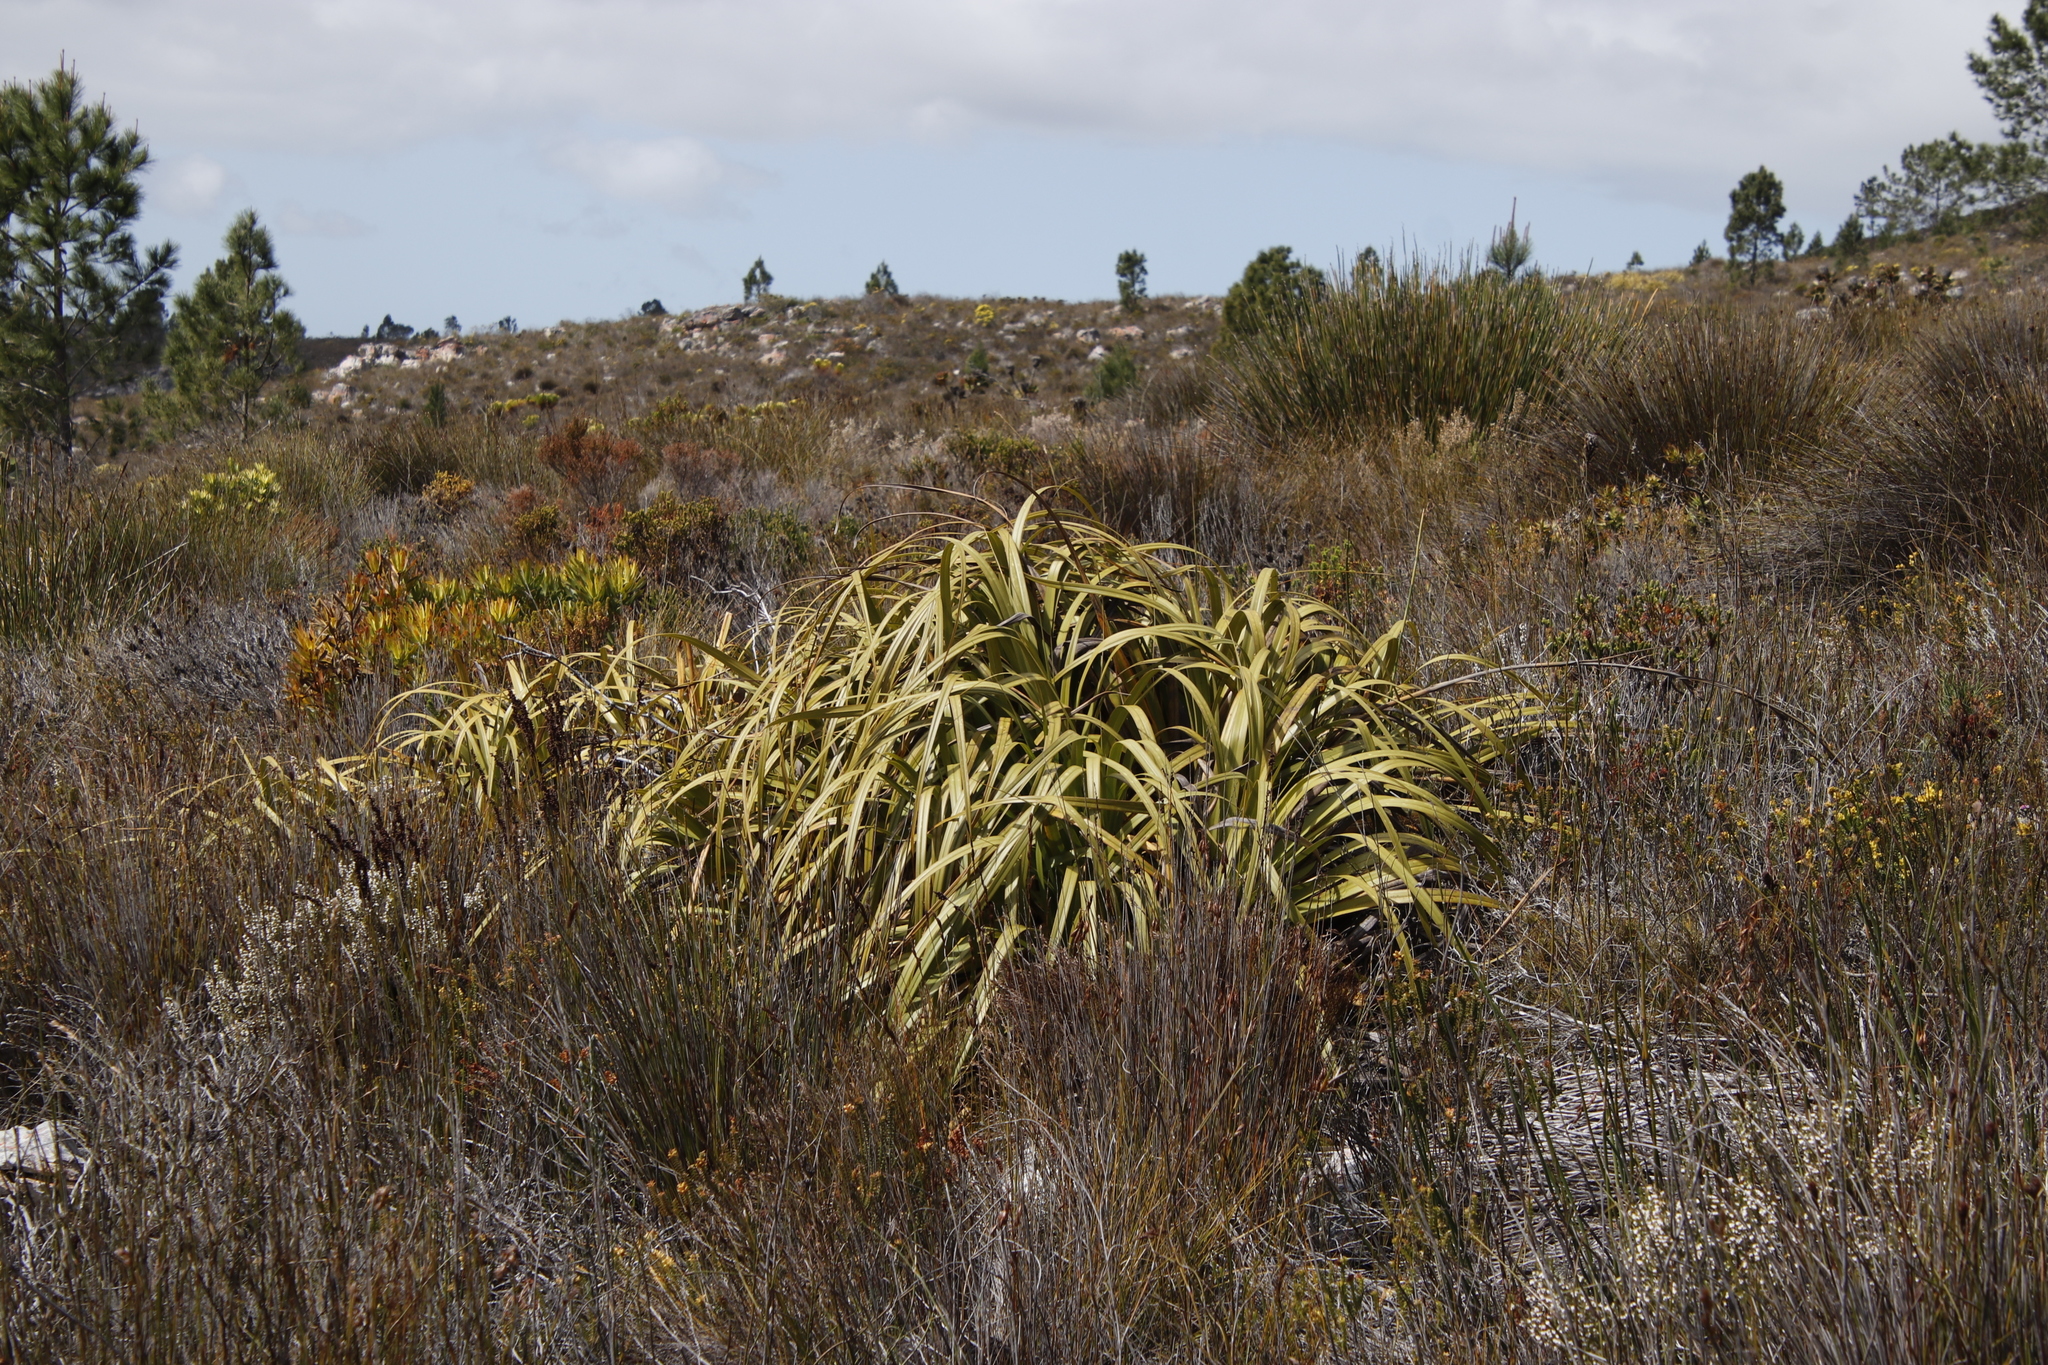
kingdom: Plantae
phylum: Tracheophyta
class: Liliopsida
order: Poales
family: Cyperaceae
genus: Tetraria
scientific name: Tetraria thermalis
